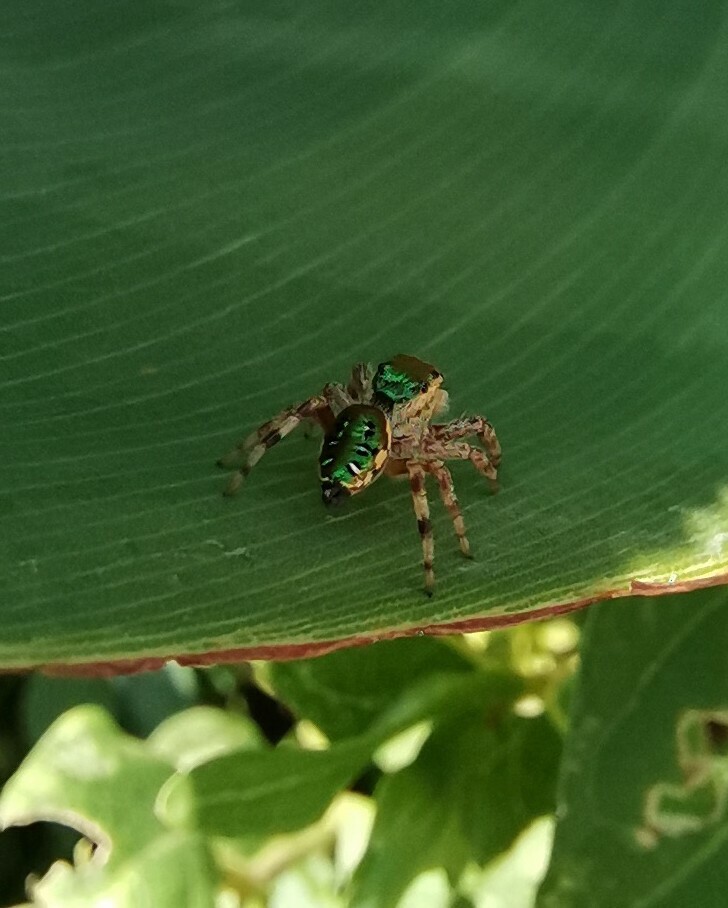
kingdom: Animalia
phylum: Arthropoda
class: Arachnida
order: Araneae
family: Salticidae
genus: Paraphidippus
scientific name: Paraphidippus aurantius
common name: Jumping spiders
